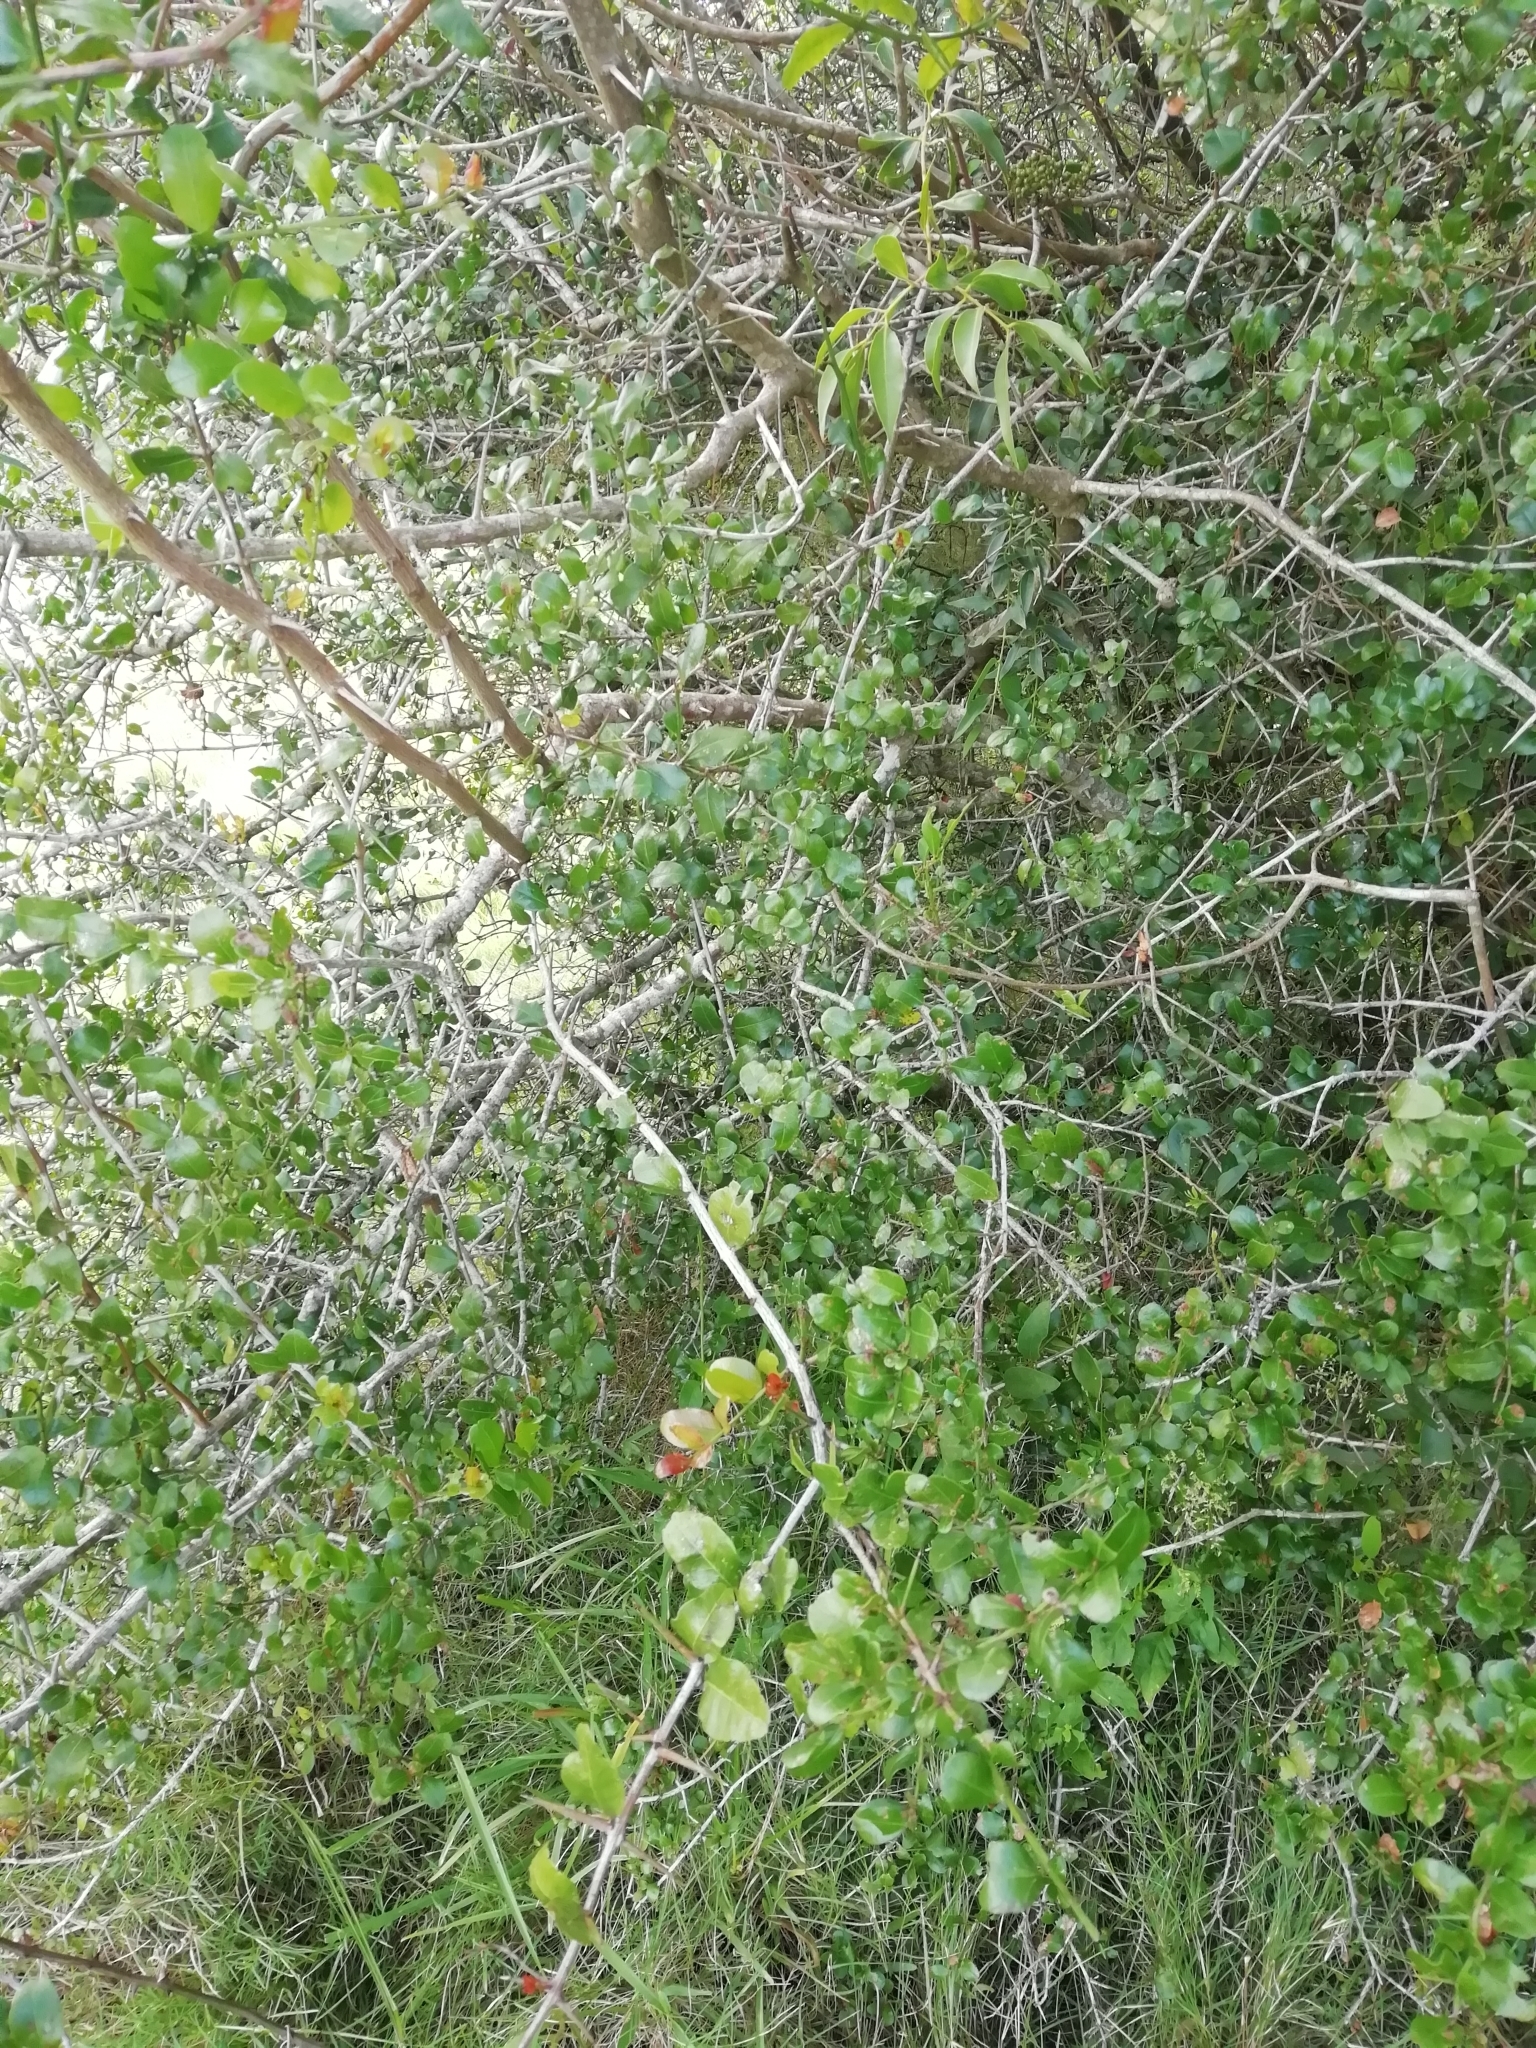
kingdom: Plantae
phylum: Tracheophyta
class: Magnoliopsida
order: Rosales
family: Rhamnaceae
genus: Scutia
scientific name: Scutia buxifolia
